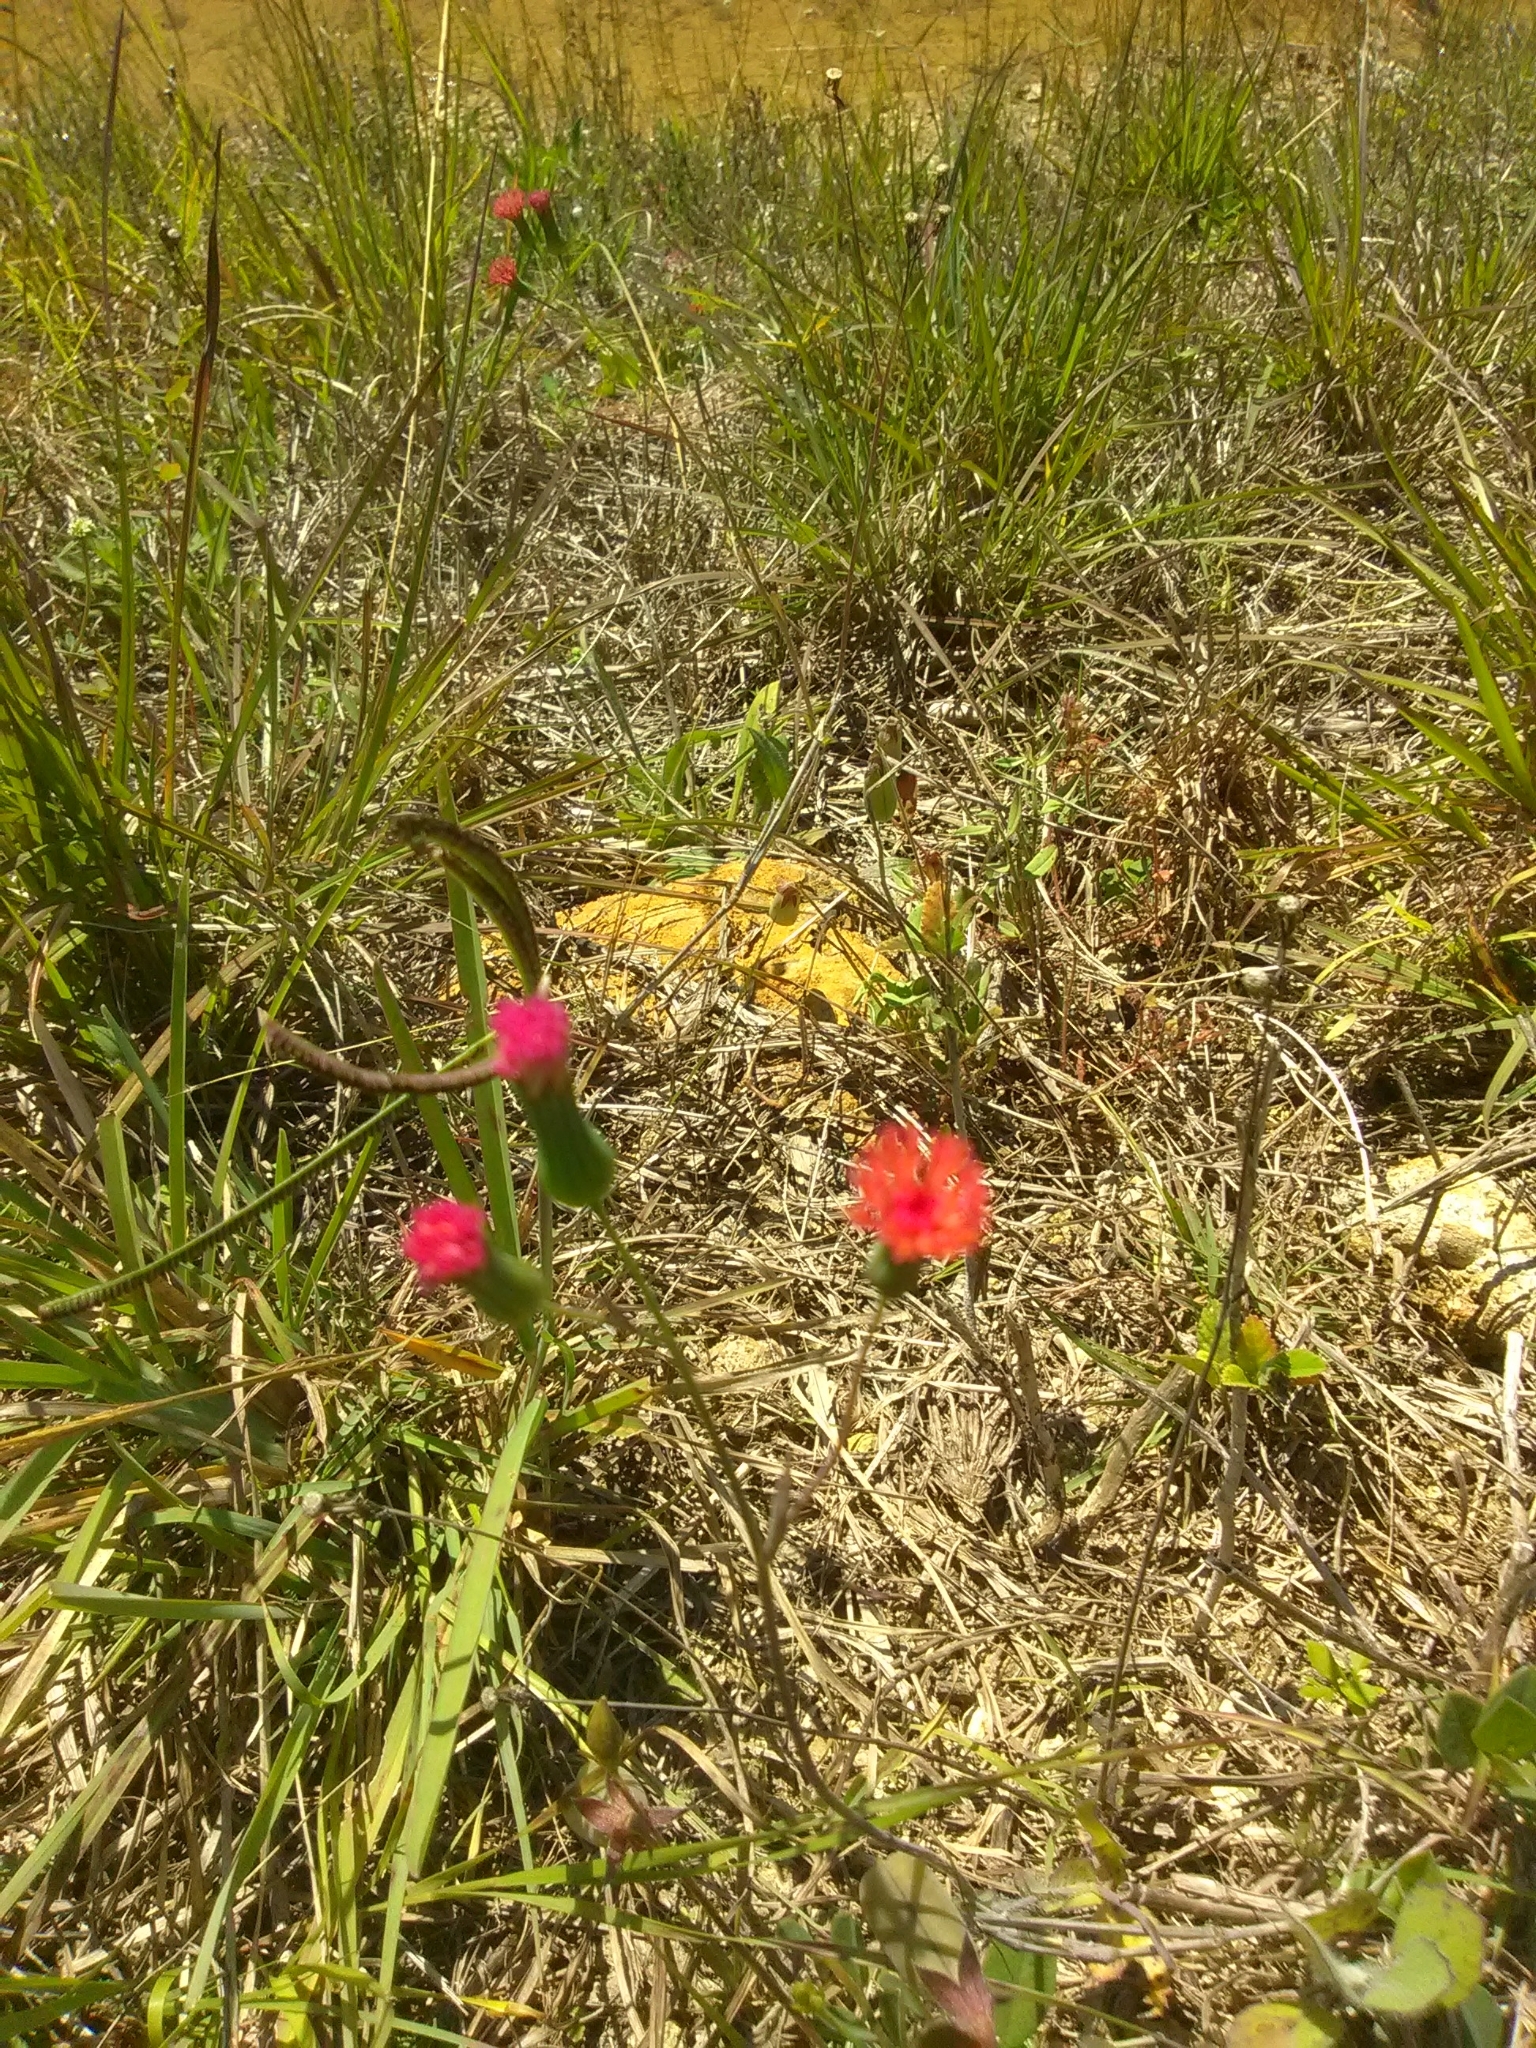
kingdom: Plantae
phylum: Tracheophyta
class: Magnoliopsida
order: Asterales
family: Asteraceae
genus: Emilia
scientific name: Emilia fosbergii
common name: Florida tasselflower
